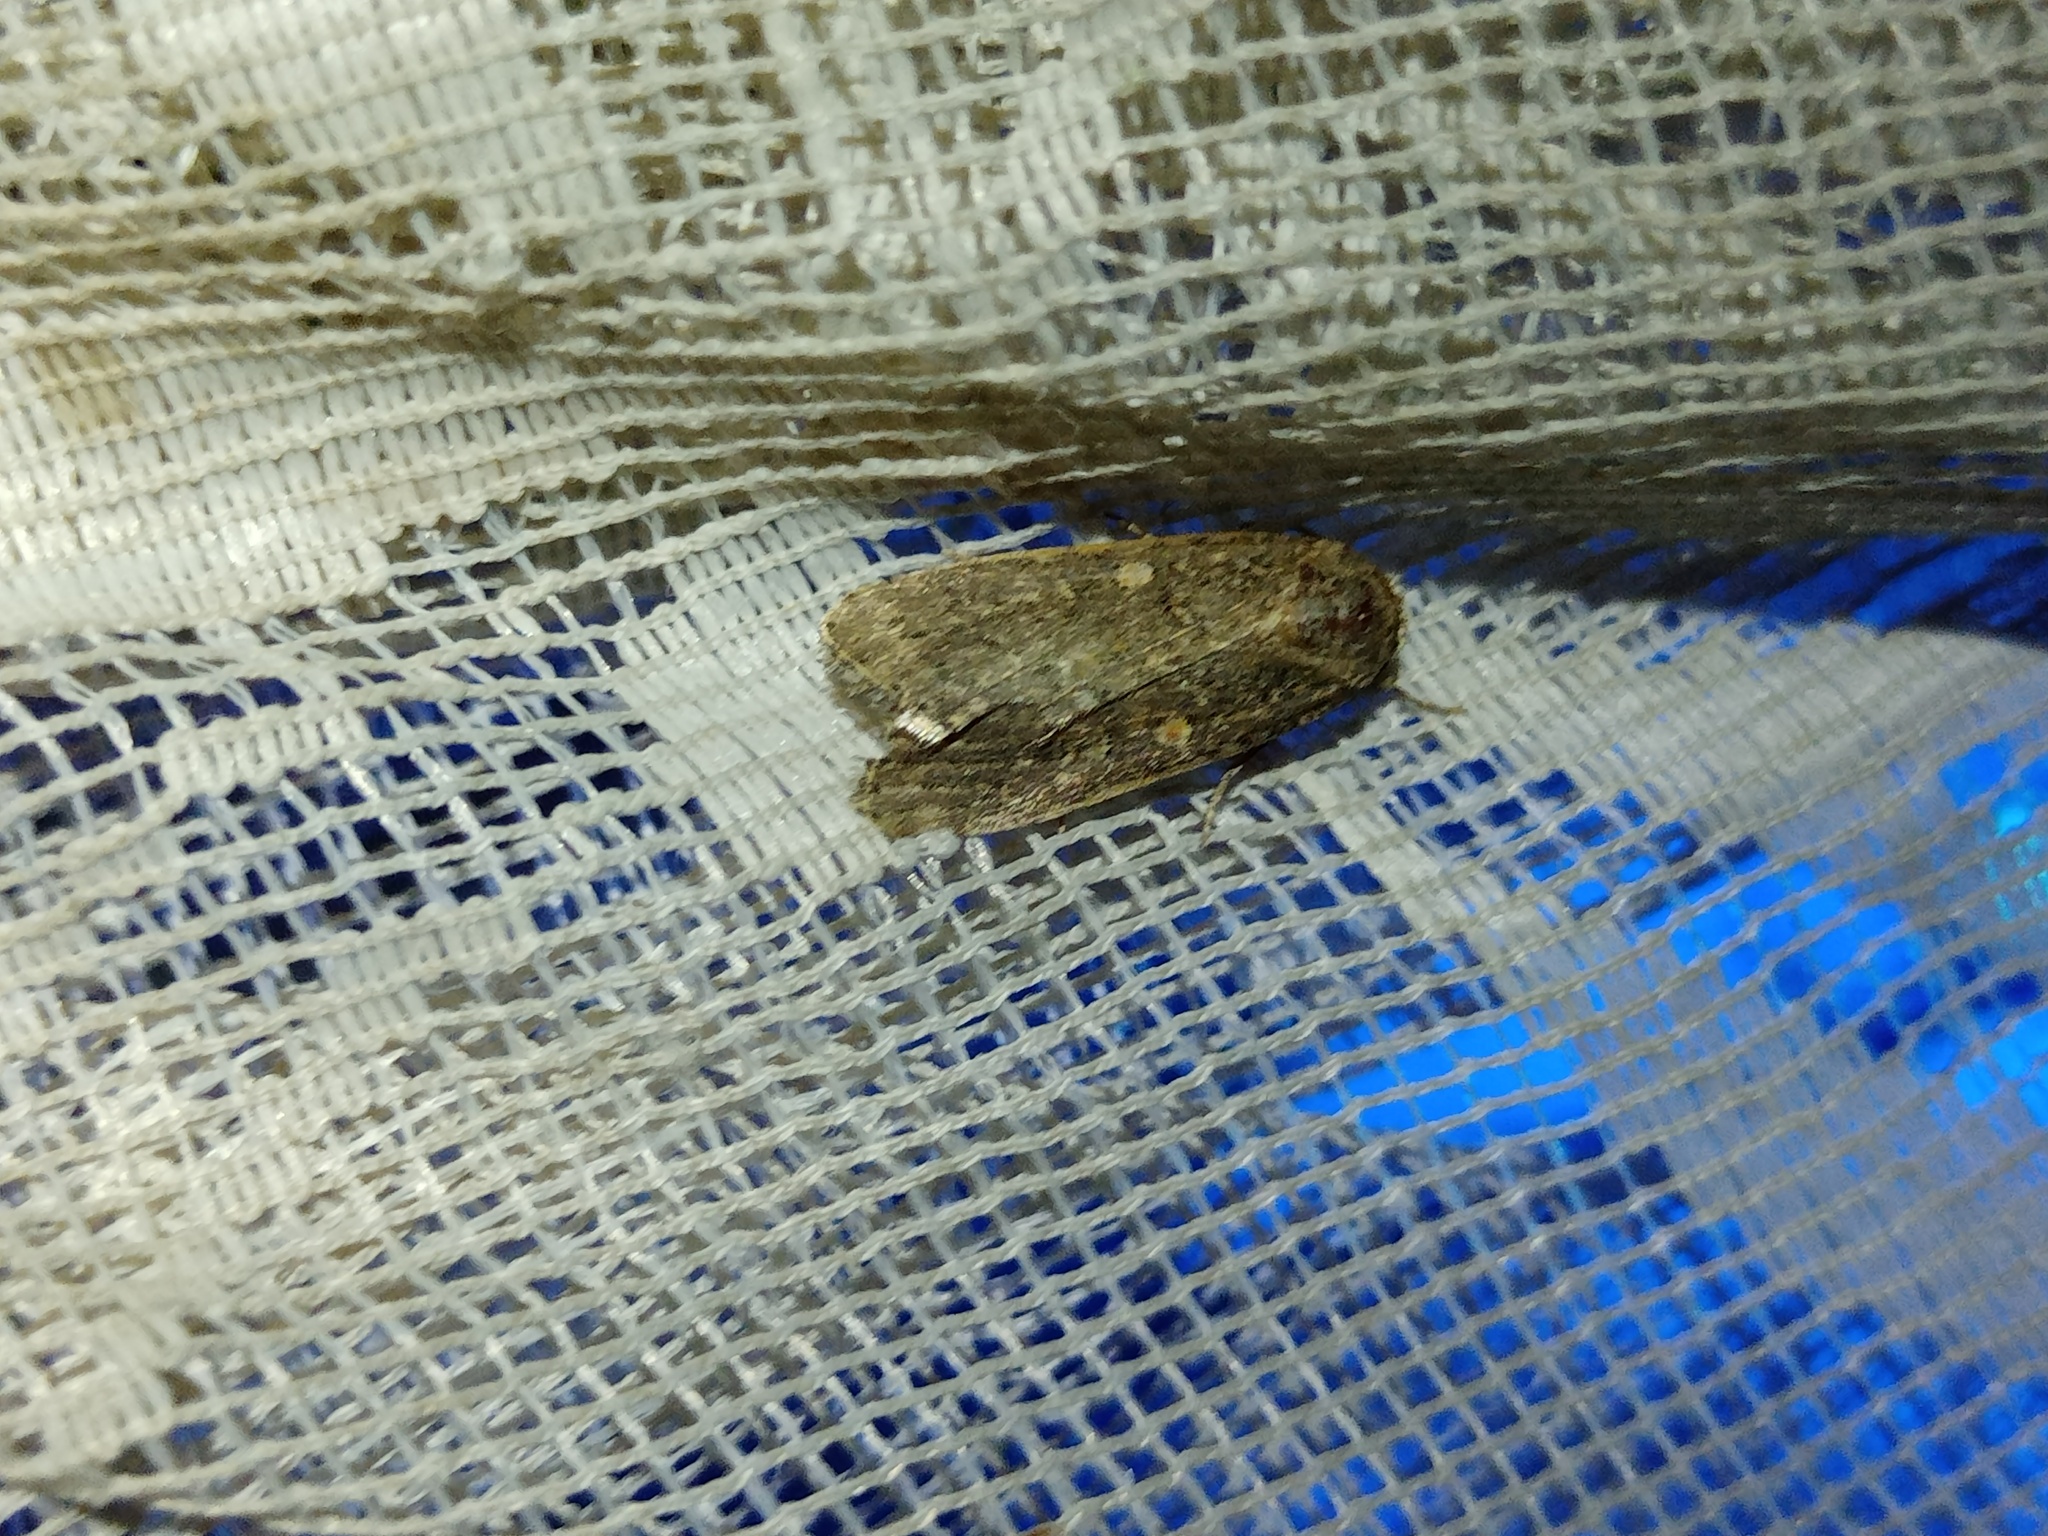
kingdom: Animalia
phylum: Arthropoda
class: Insecta
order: Lepidoptera
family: Noctuidae
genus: Spodoptera
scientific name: Spodoptera exigua
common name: Beet armyworm
